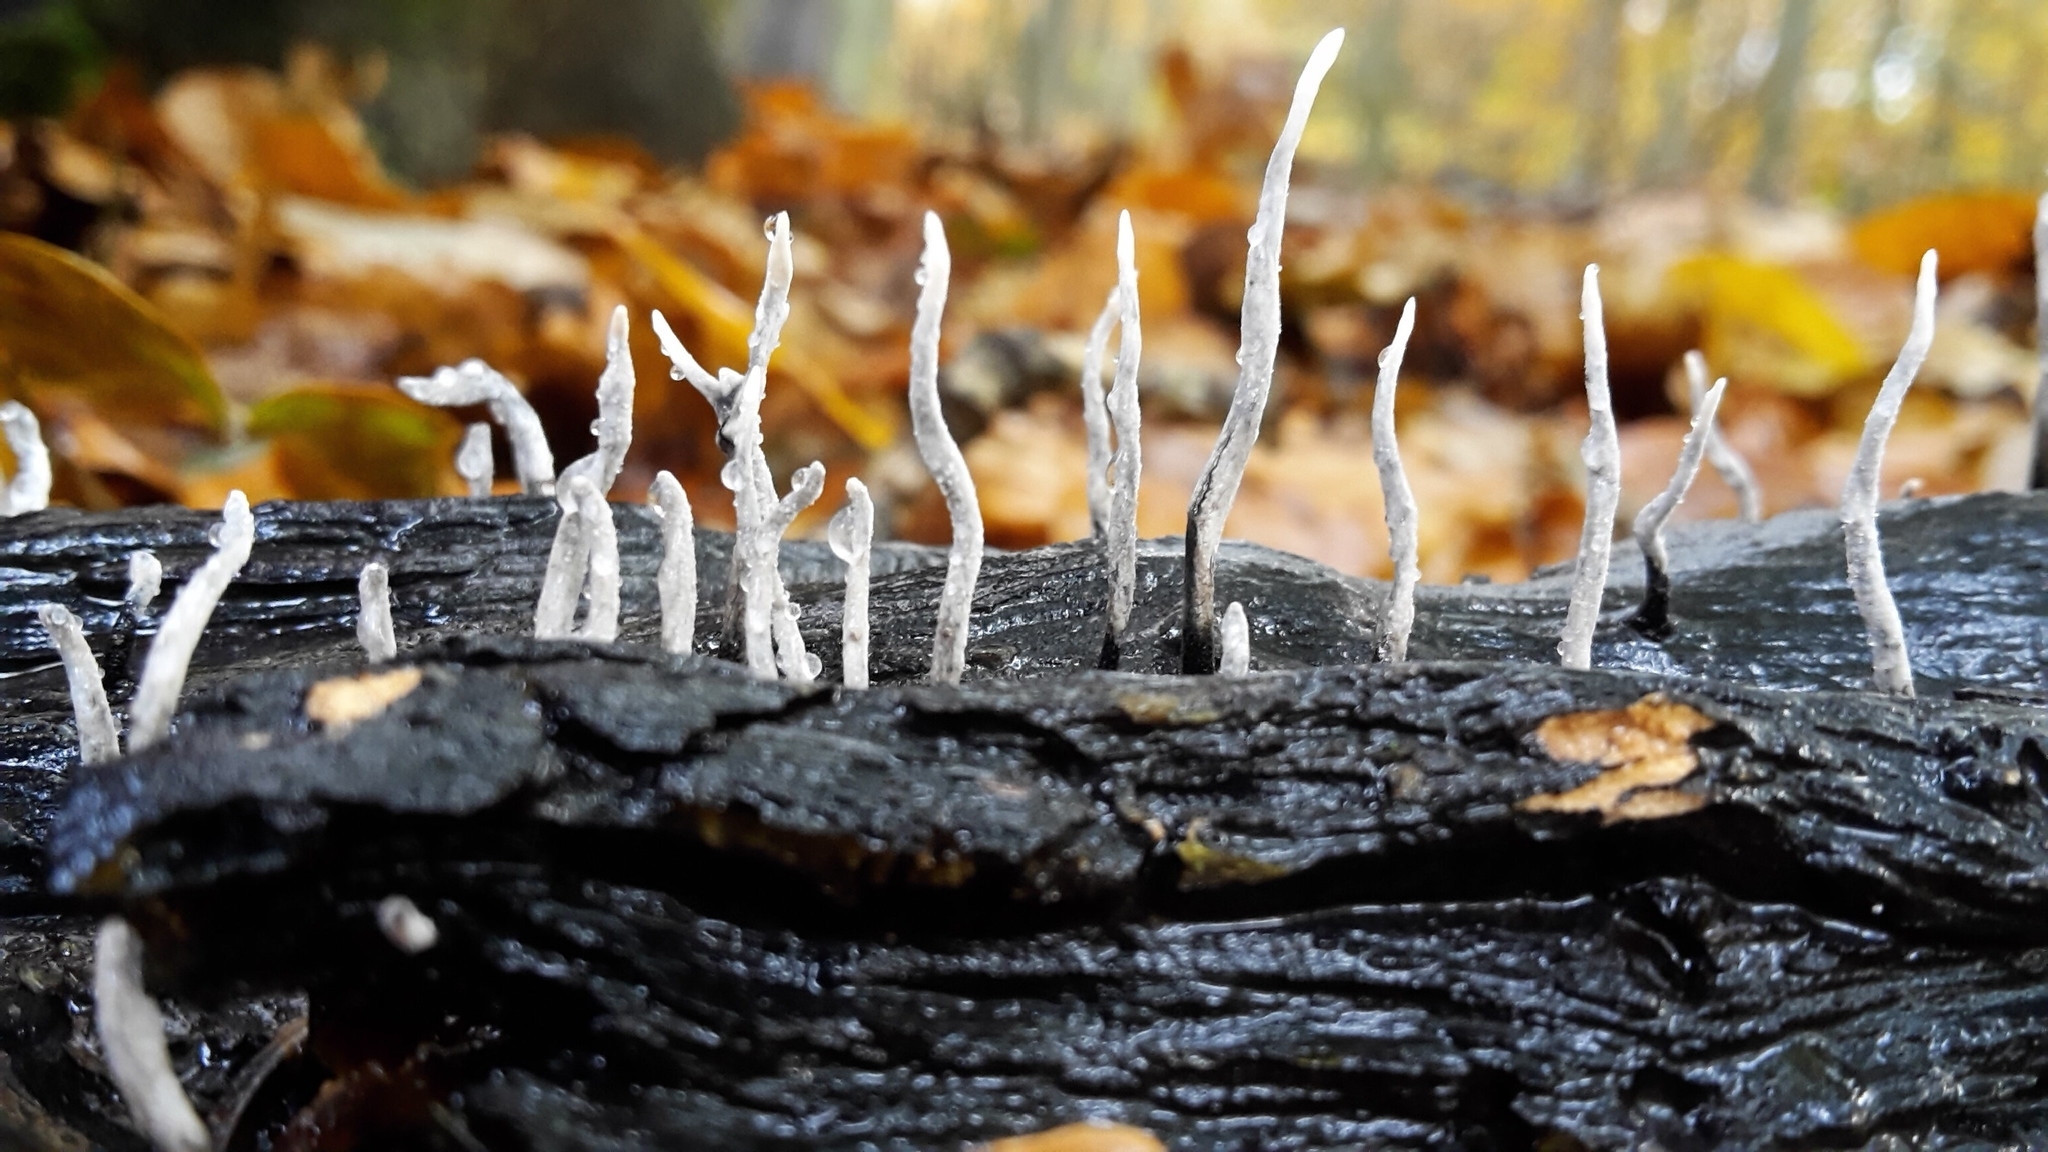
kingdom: Fungi
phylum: Ascomycota
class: Sordariomycetes
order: Xylariales
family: Xylariaceae
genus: Xylaria
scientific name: Xylaria hypoxylon
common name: Candle-snuff fungus
